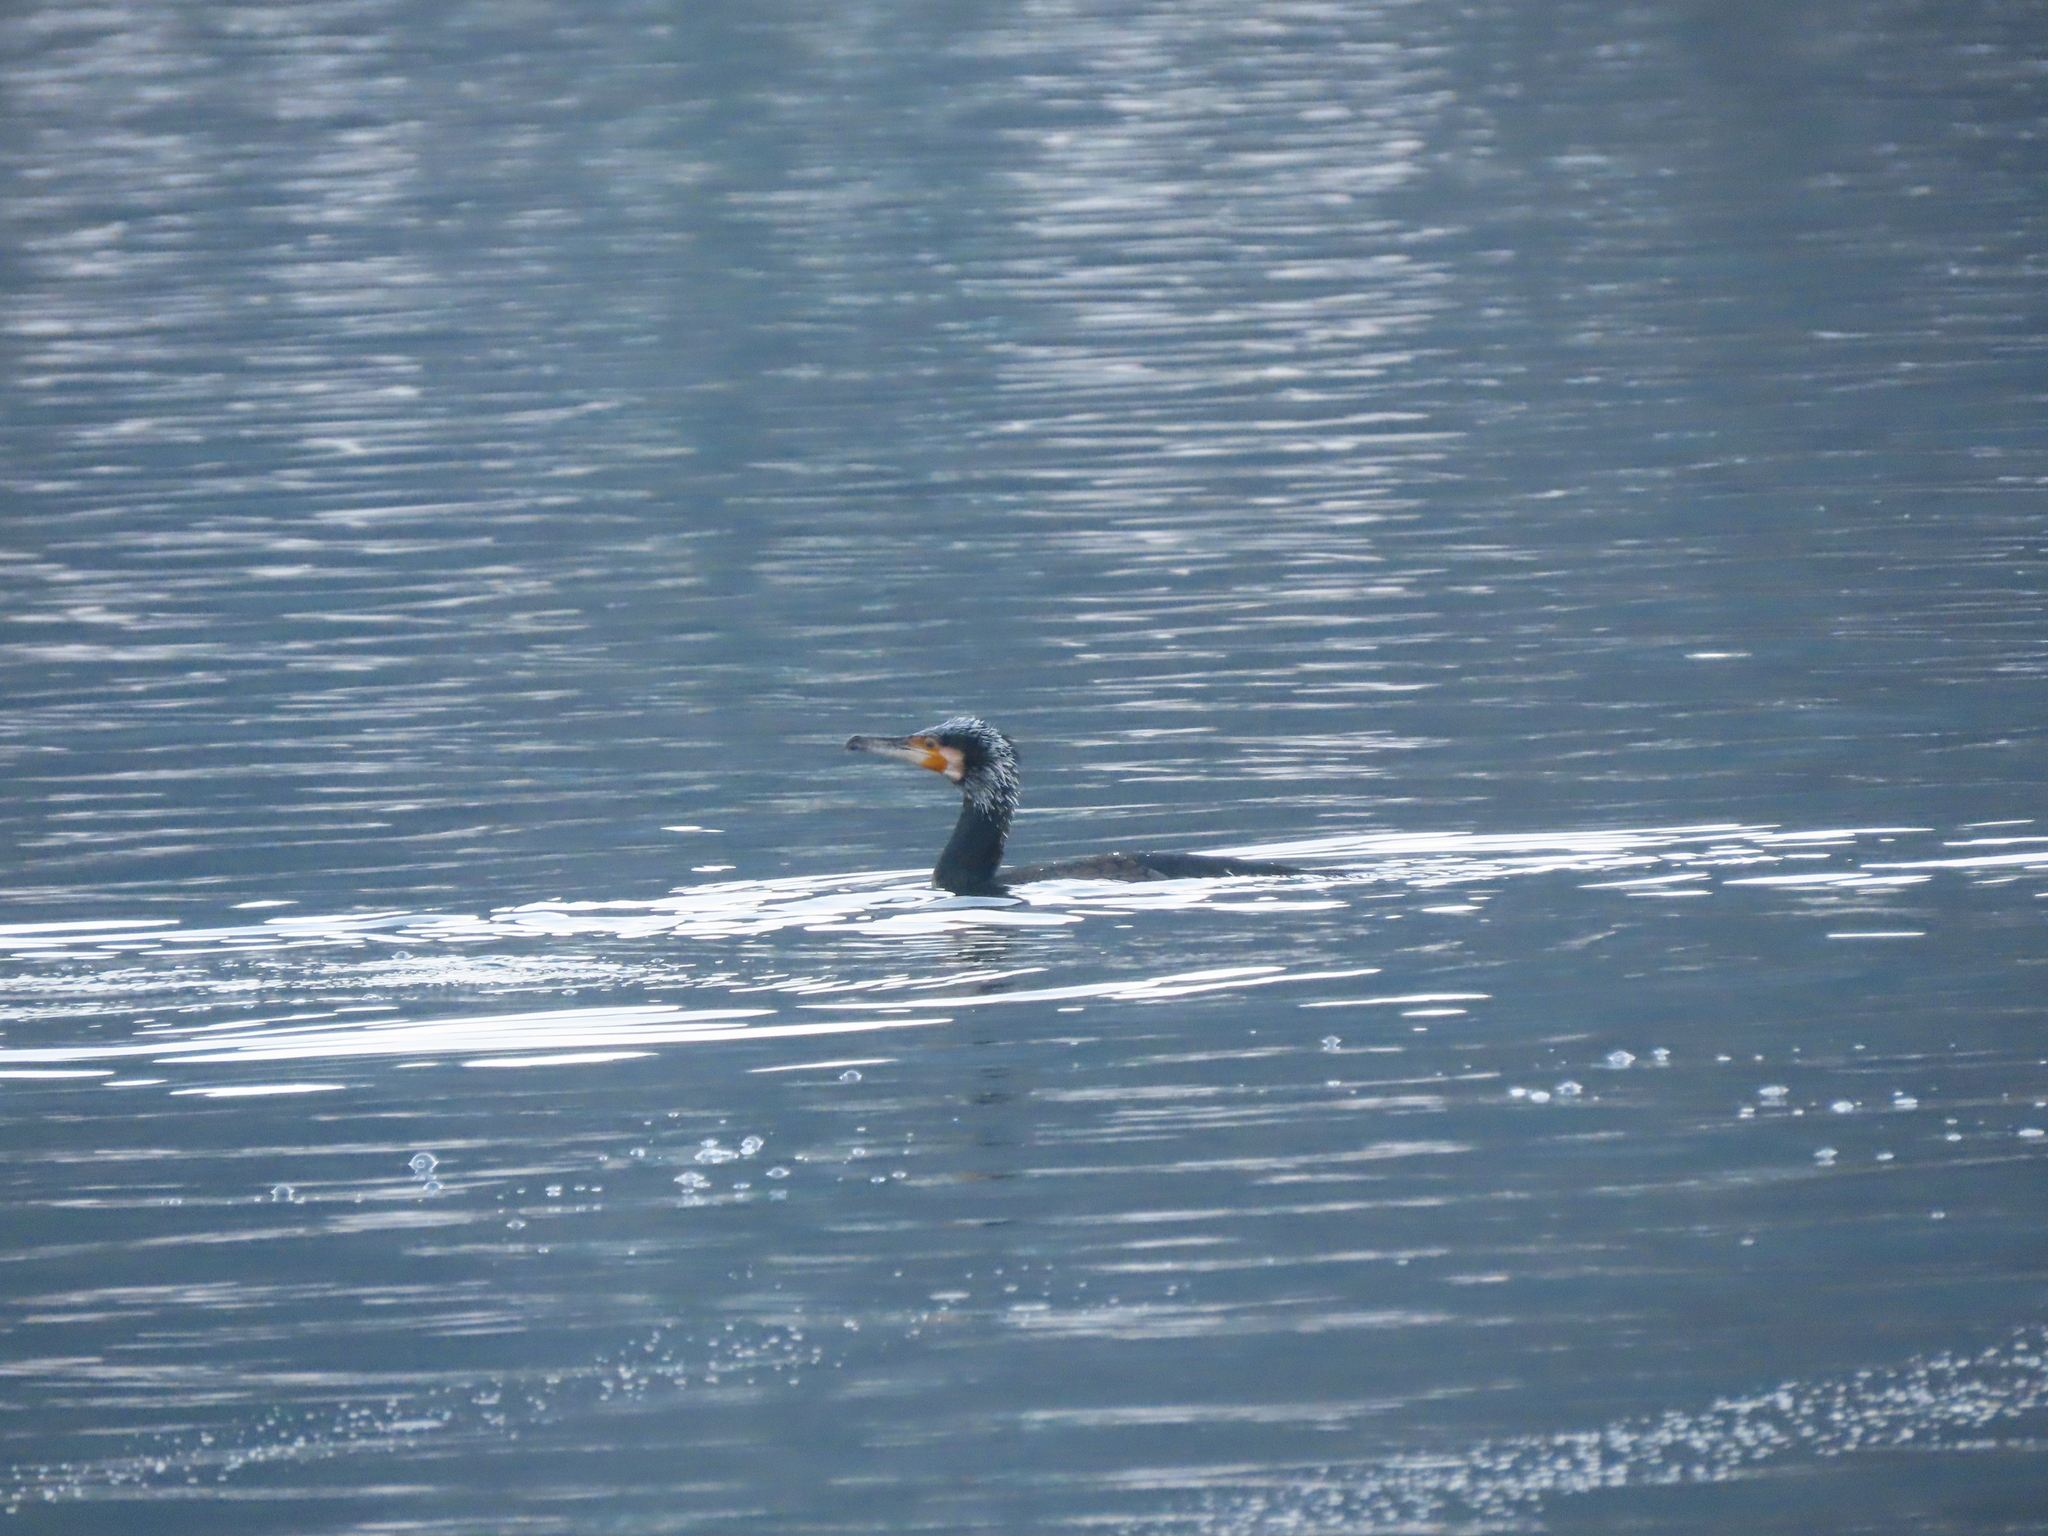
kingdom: Animalia
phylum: Chordata
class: Aves
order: Suliformes
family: Phalacrocoracidae
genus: Phalacrocorax
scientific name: Phalacrocorax carbo
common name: Great cormorant
